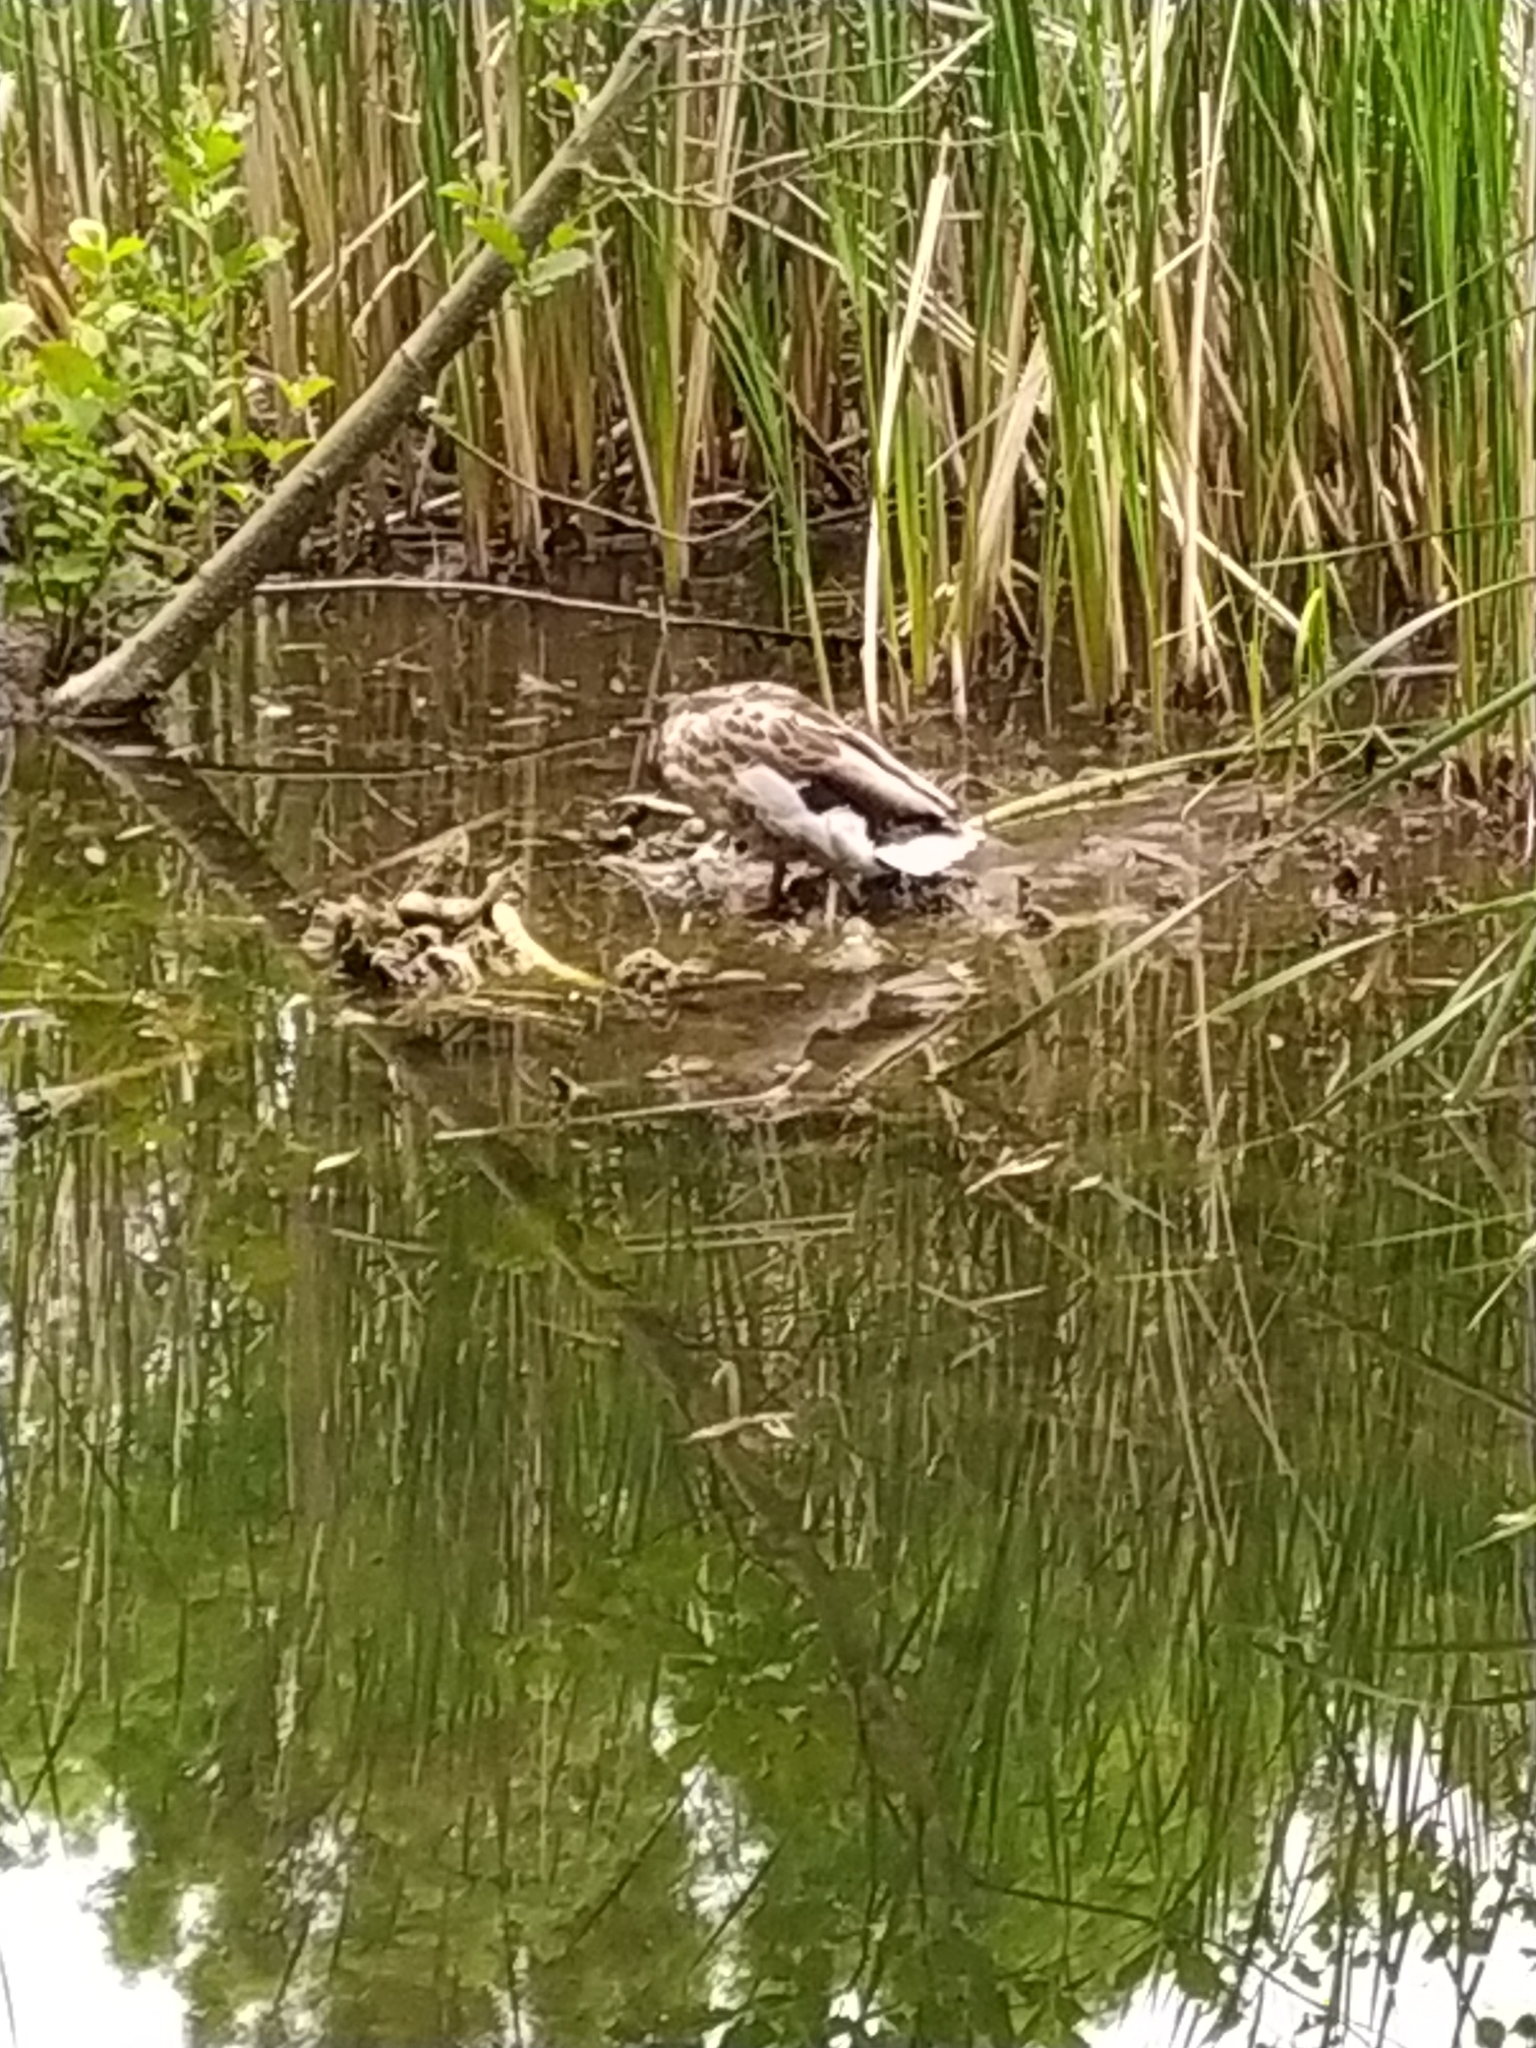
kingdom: Animalia
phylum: Chordata
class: Aves
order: Anseriformes
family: Anatidae
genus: Anas
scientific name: Anas platyrhynchos
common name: Mallard
